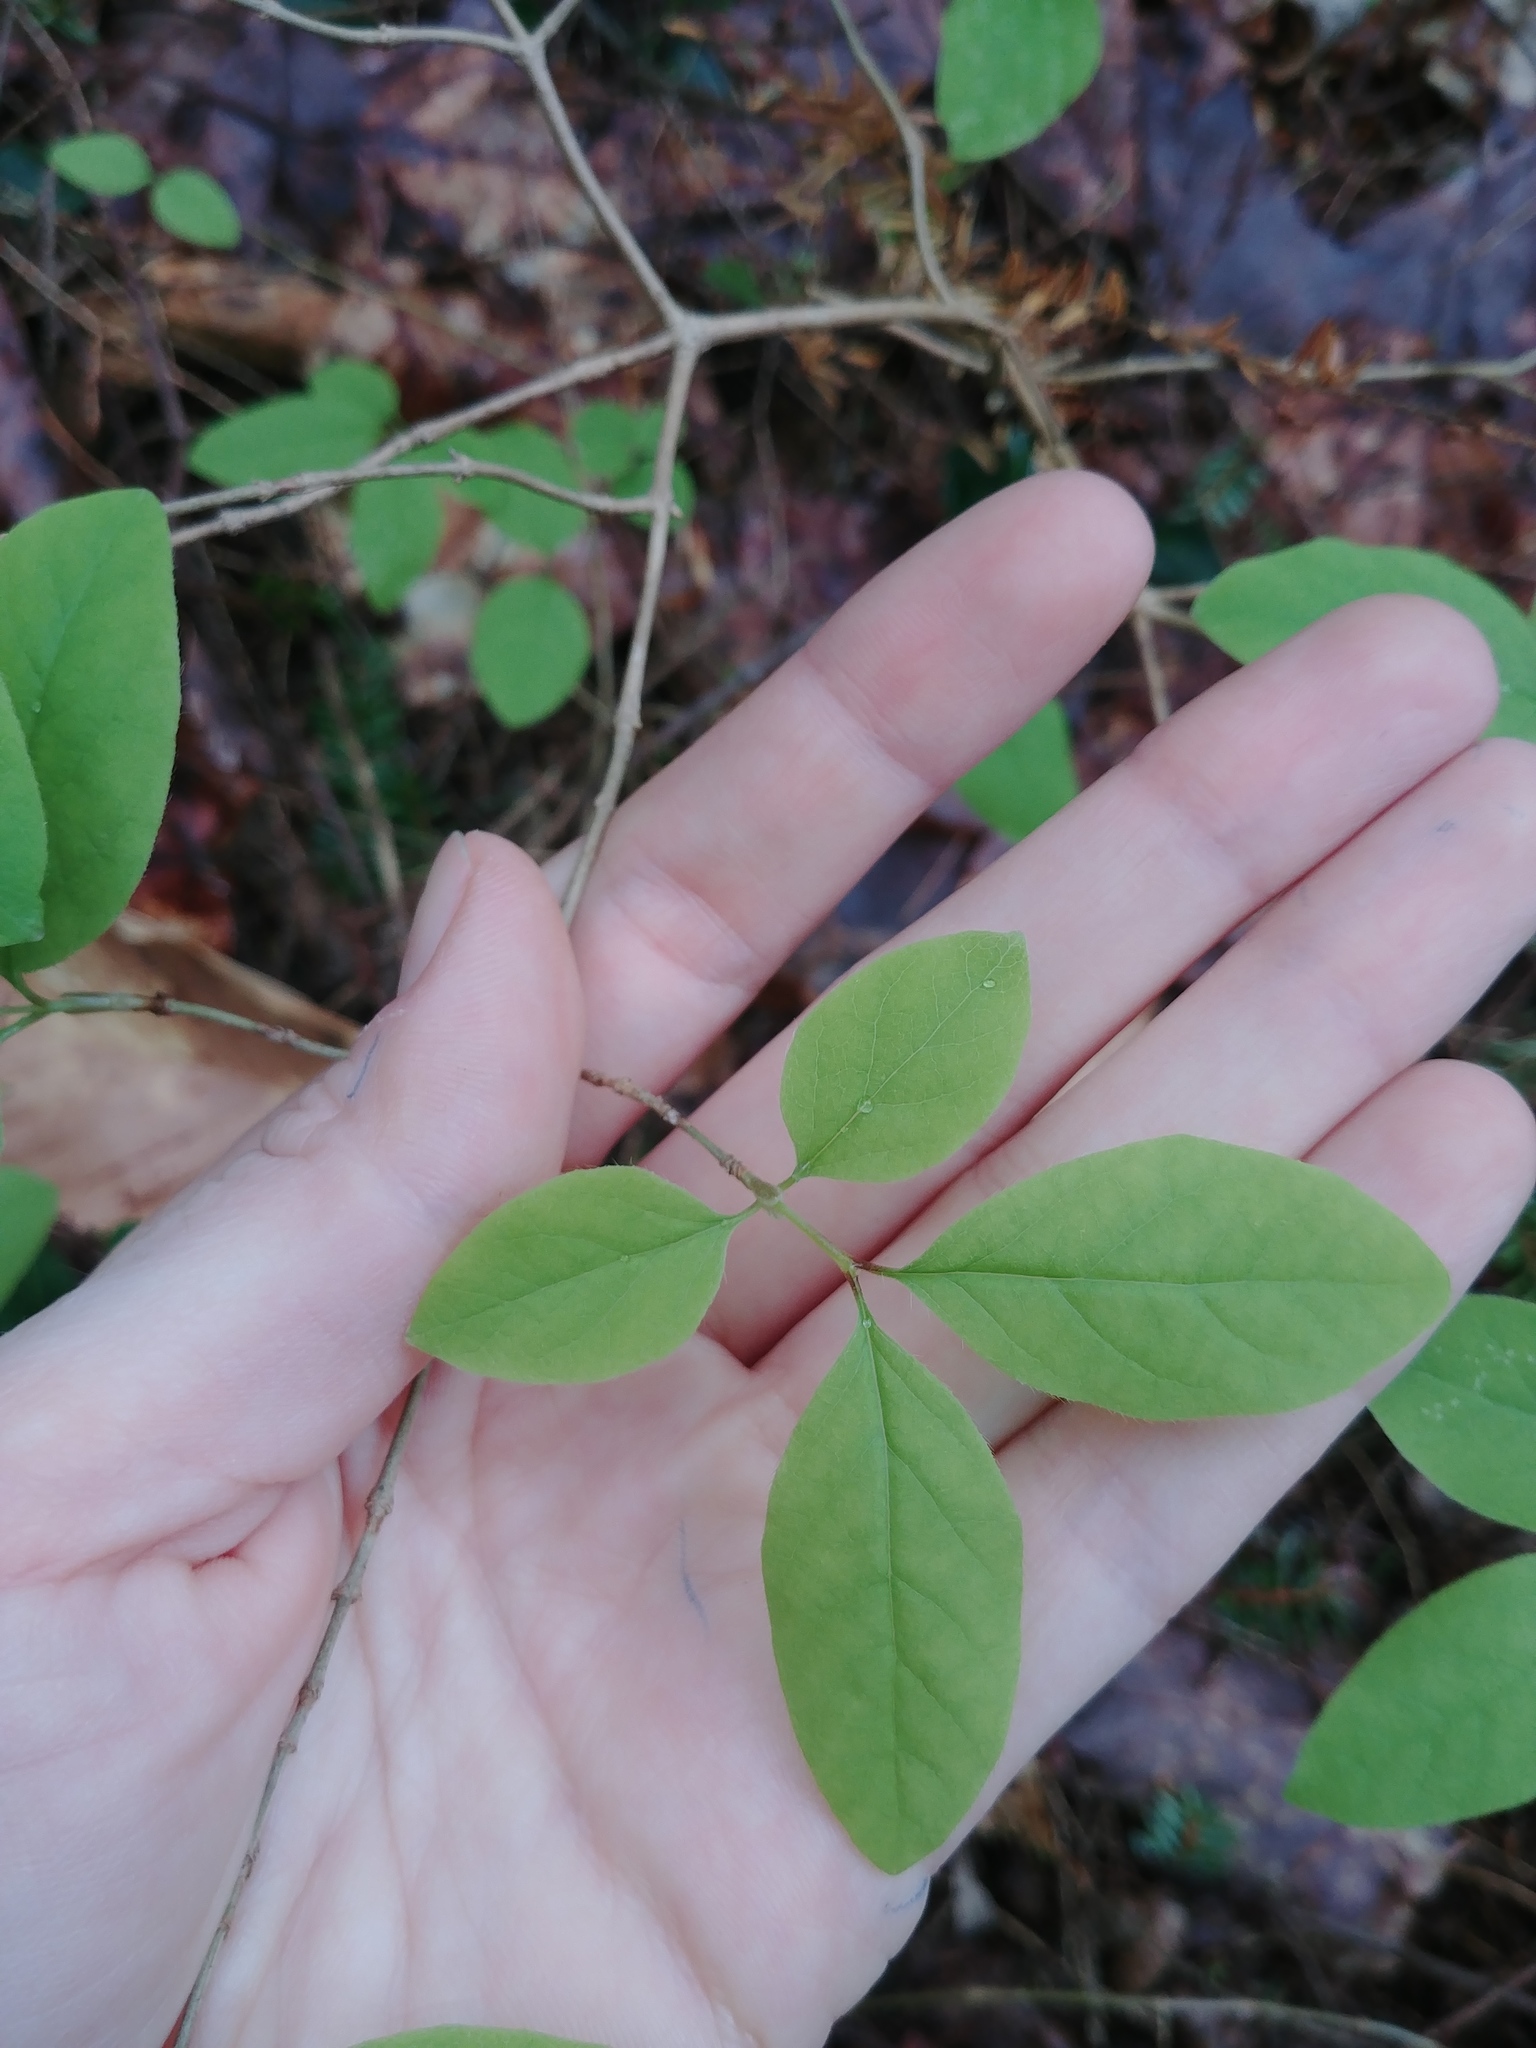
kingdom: Plantae
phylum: Tracheophyta
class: Magnoliopsida
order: Dipsacales
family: Caprifoliaceae
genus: Lonicera
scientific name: Lonicera canadensis
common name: American fly-honeysuckle
